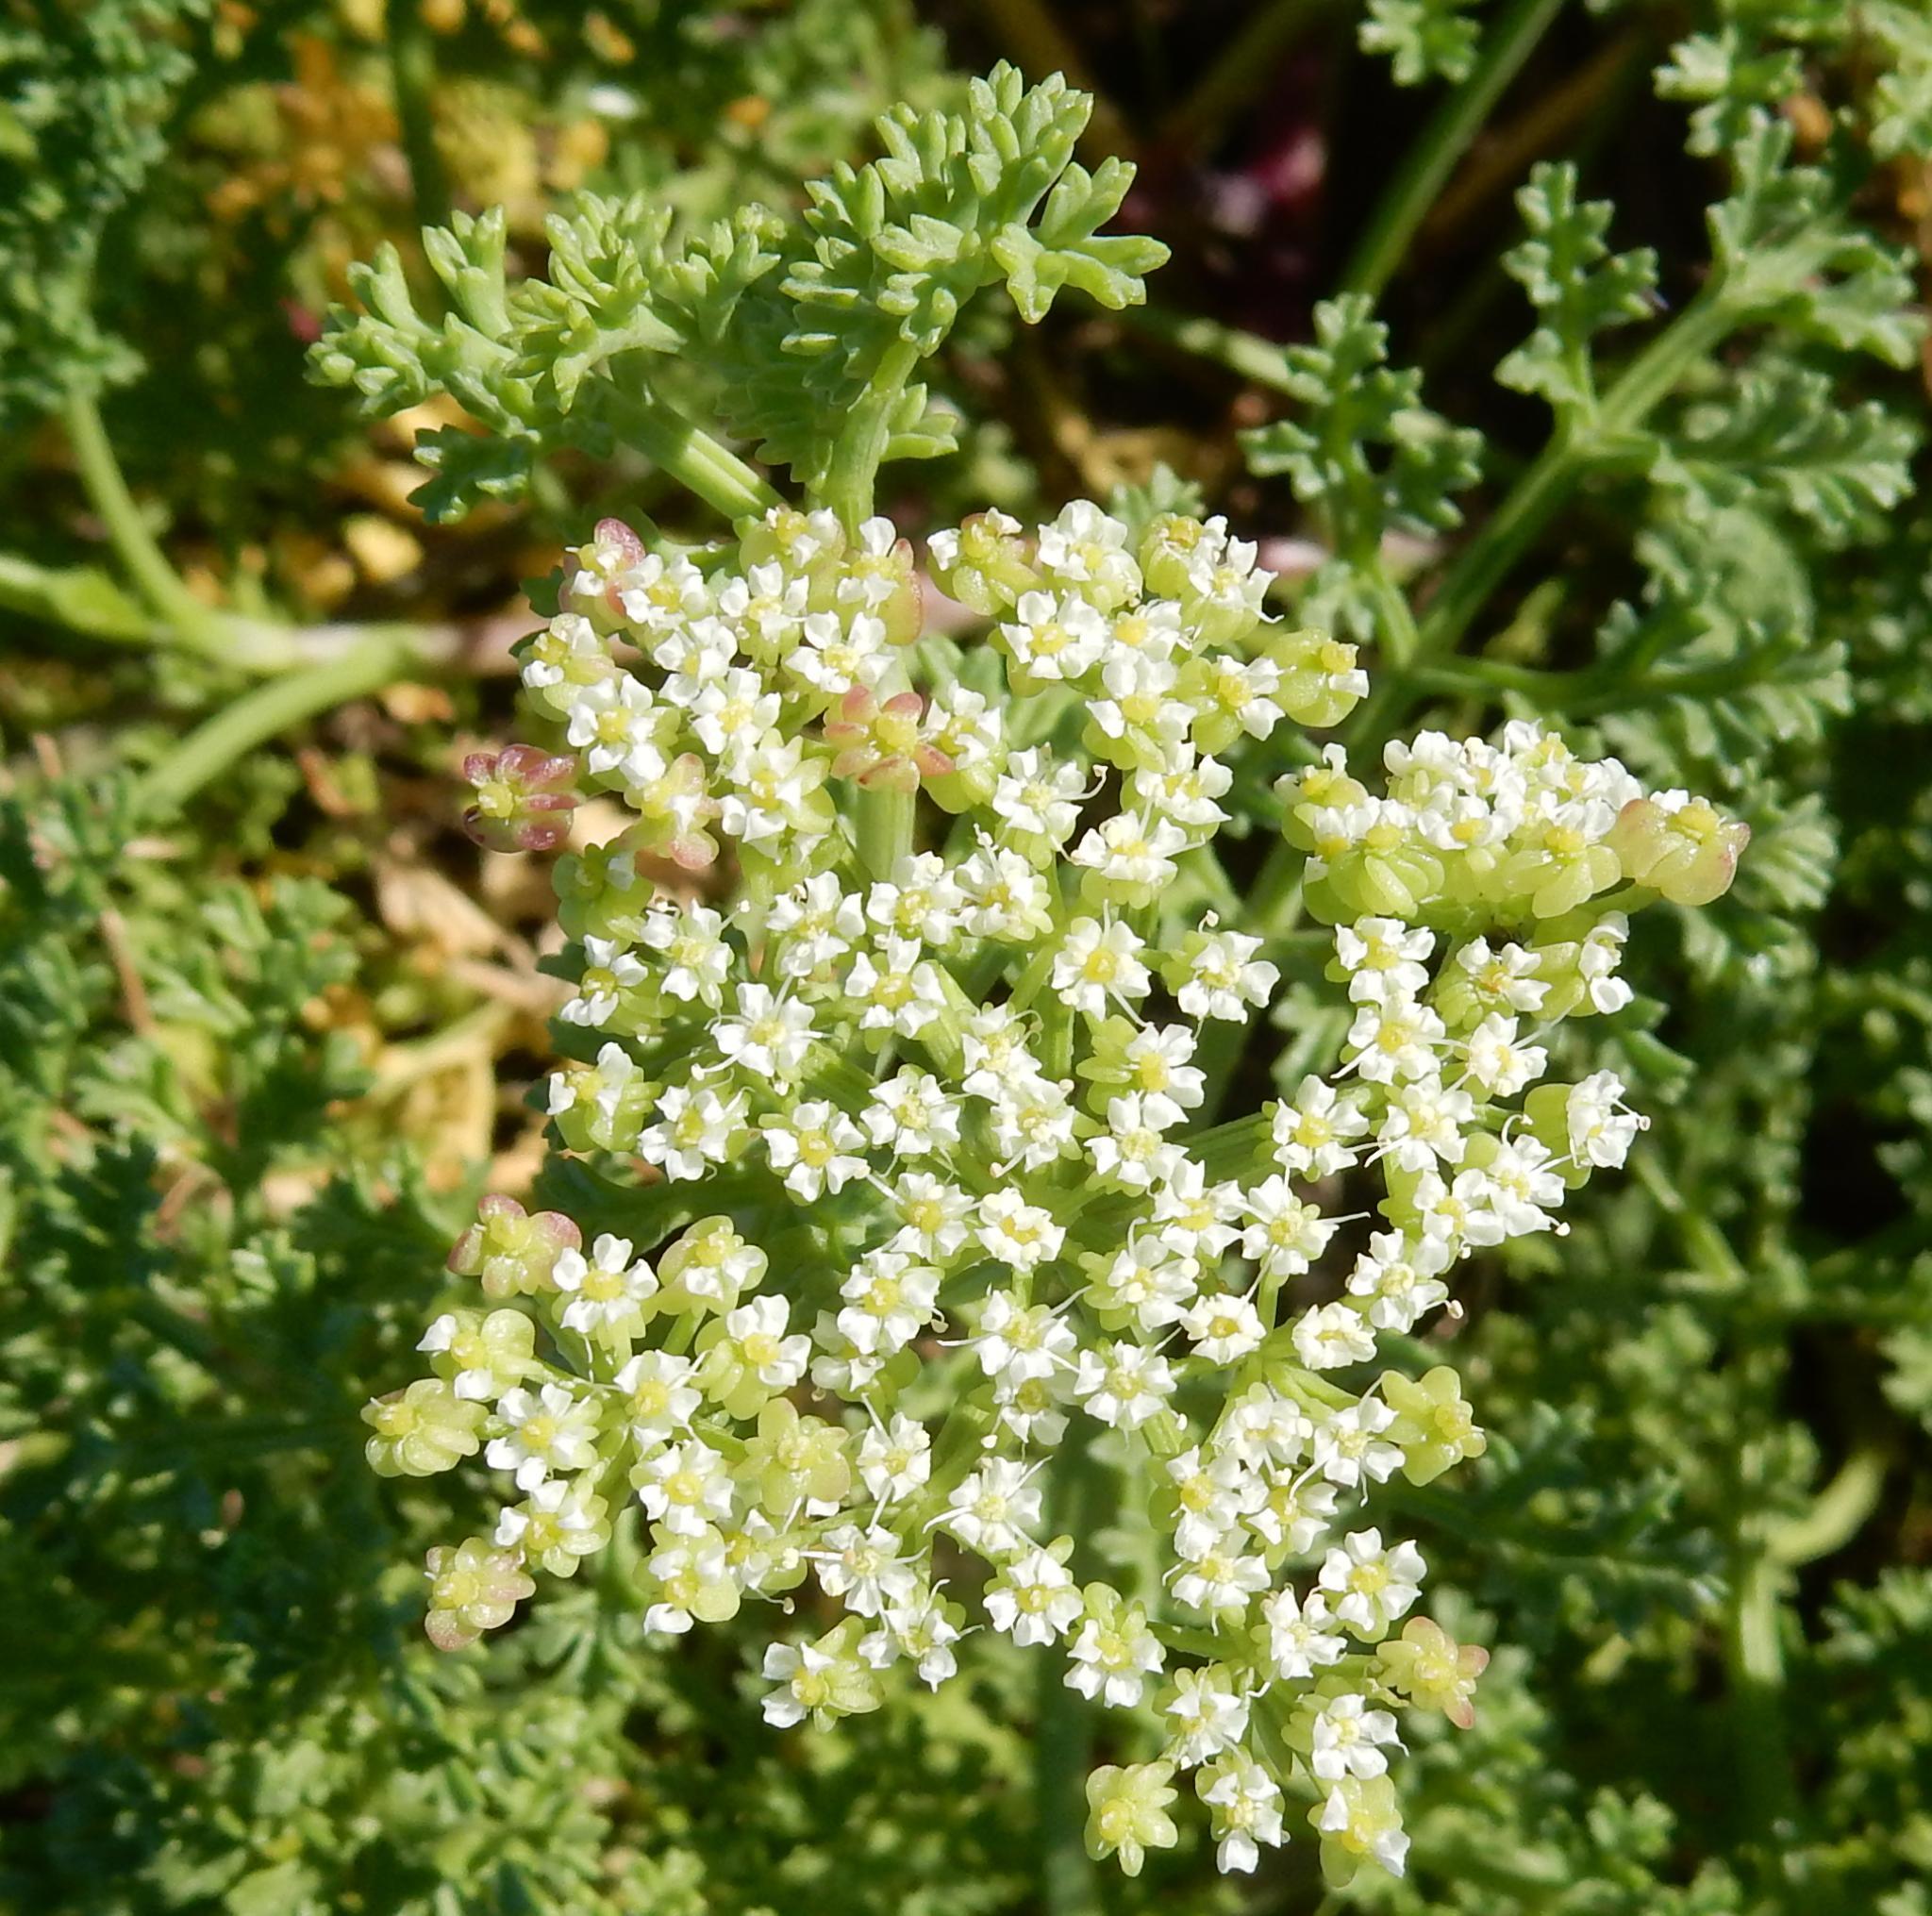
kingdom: Plantae
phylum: Tracheophyta
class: Magnoliopsida
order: Apiales
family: Apiaceae
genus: Dasispermum
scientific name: Dasispermum suffruticosum
